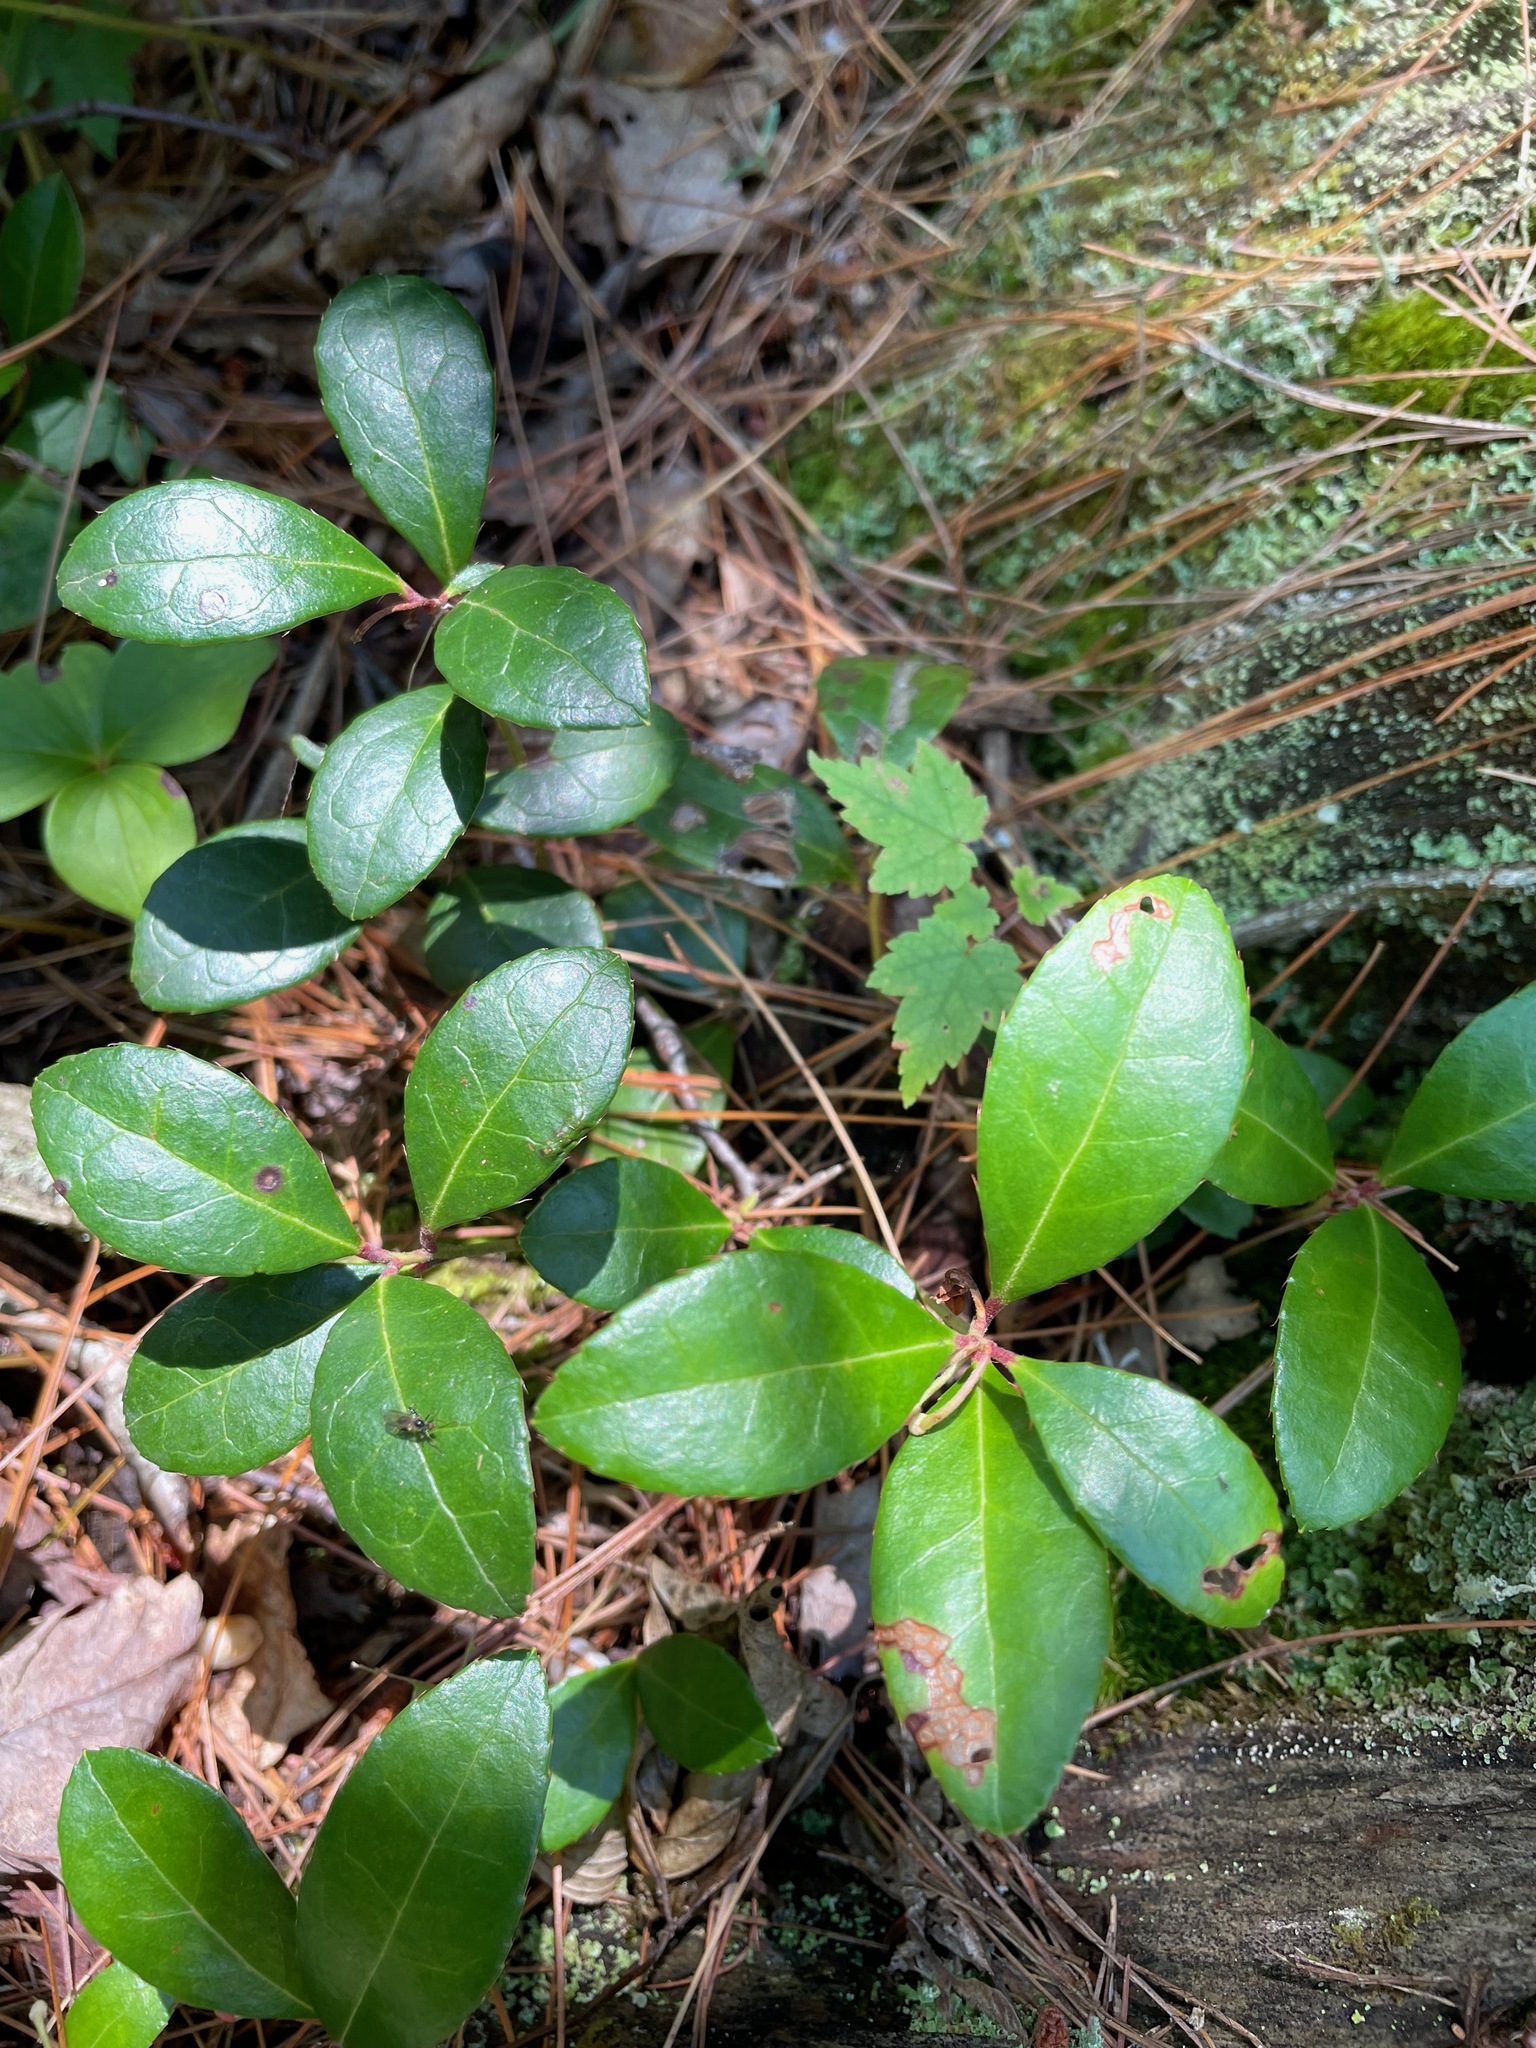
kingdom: Plantae
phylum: Tracheophyta
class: Magnoliopsida
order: Ericales
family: Ericaceae
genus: Gaultheria
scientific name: Gaultheria procumbens
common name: Checkerberry
